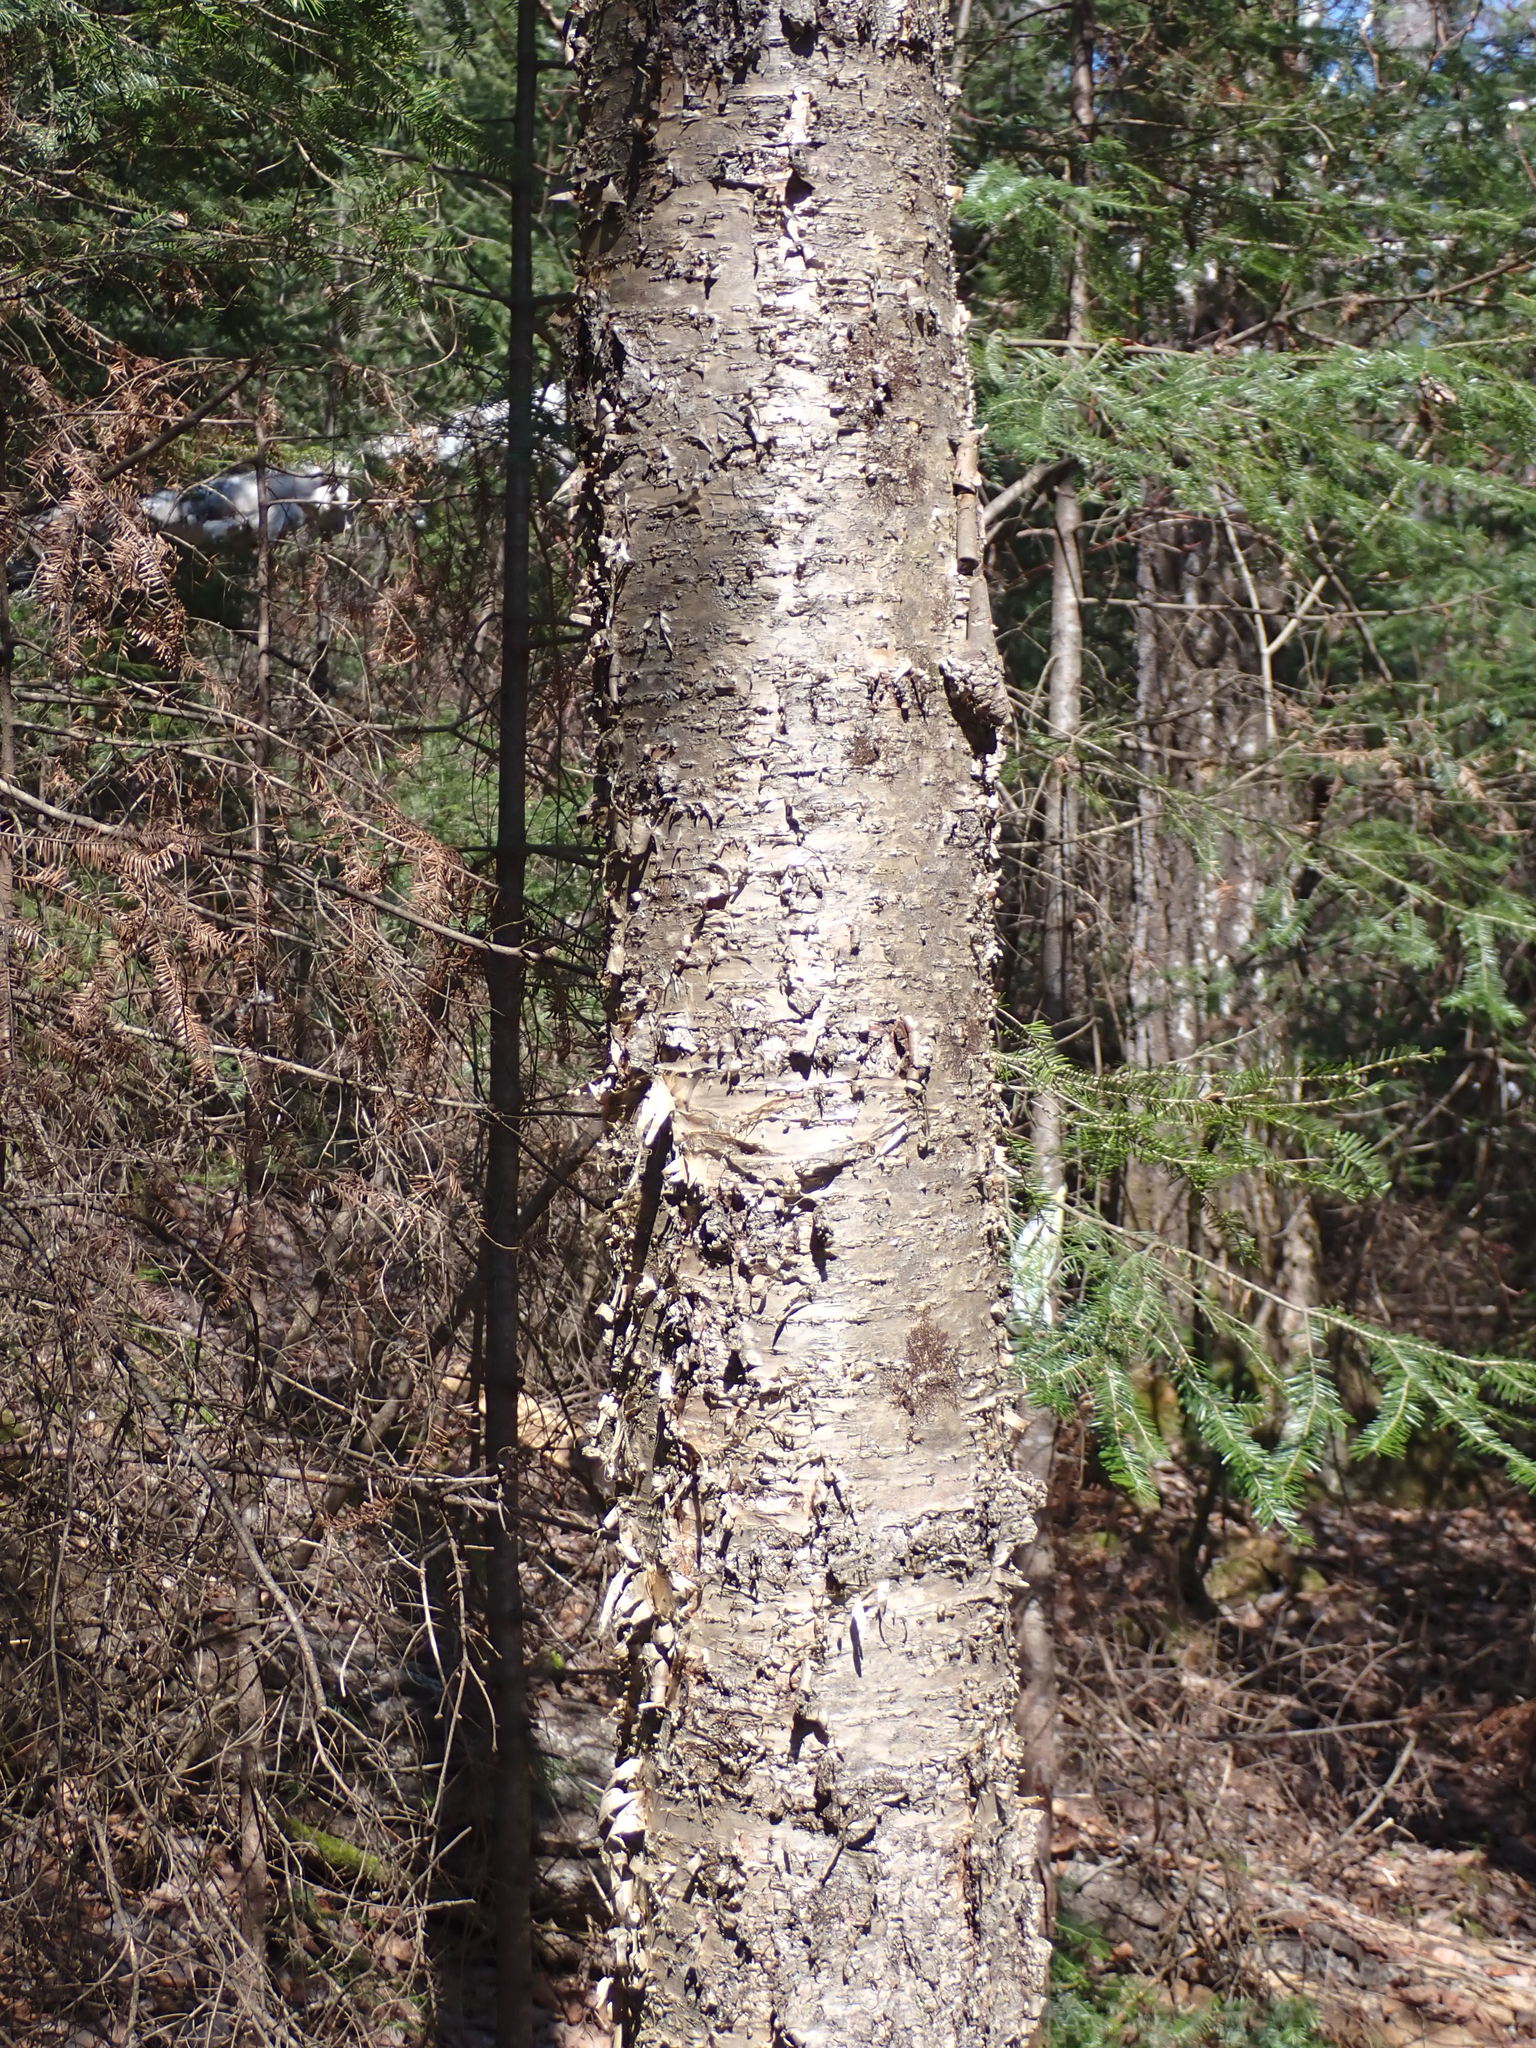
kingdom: Plantae
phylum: Tracheophyta
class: Magnoliopsida
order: Fagales
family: Betulaceae
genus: Betula
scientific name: Betula alleghaniensis
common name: Yellow birch
